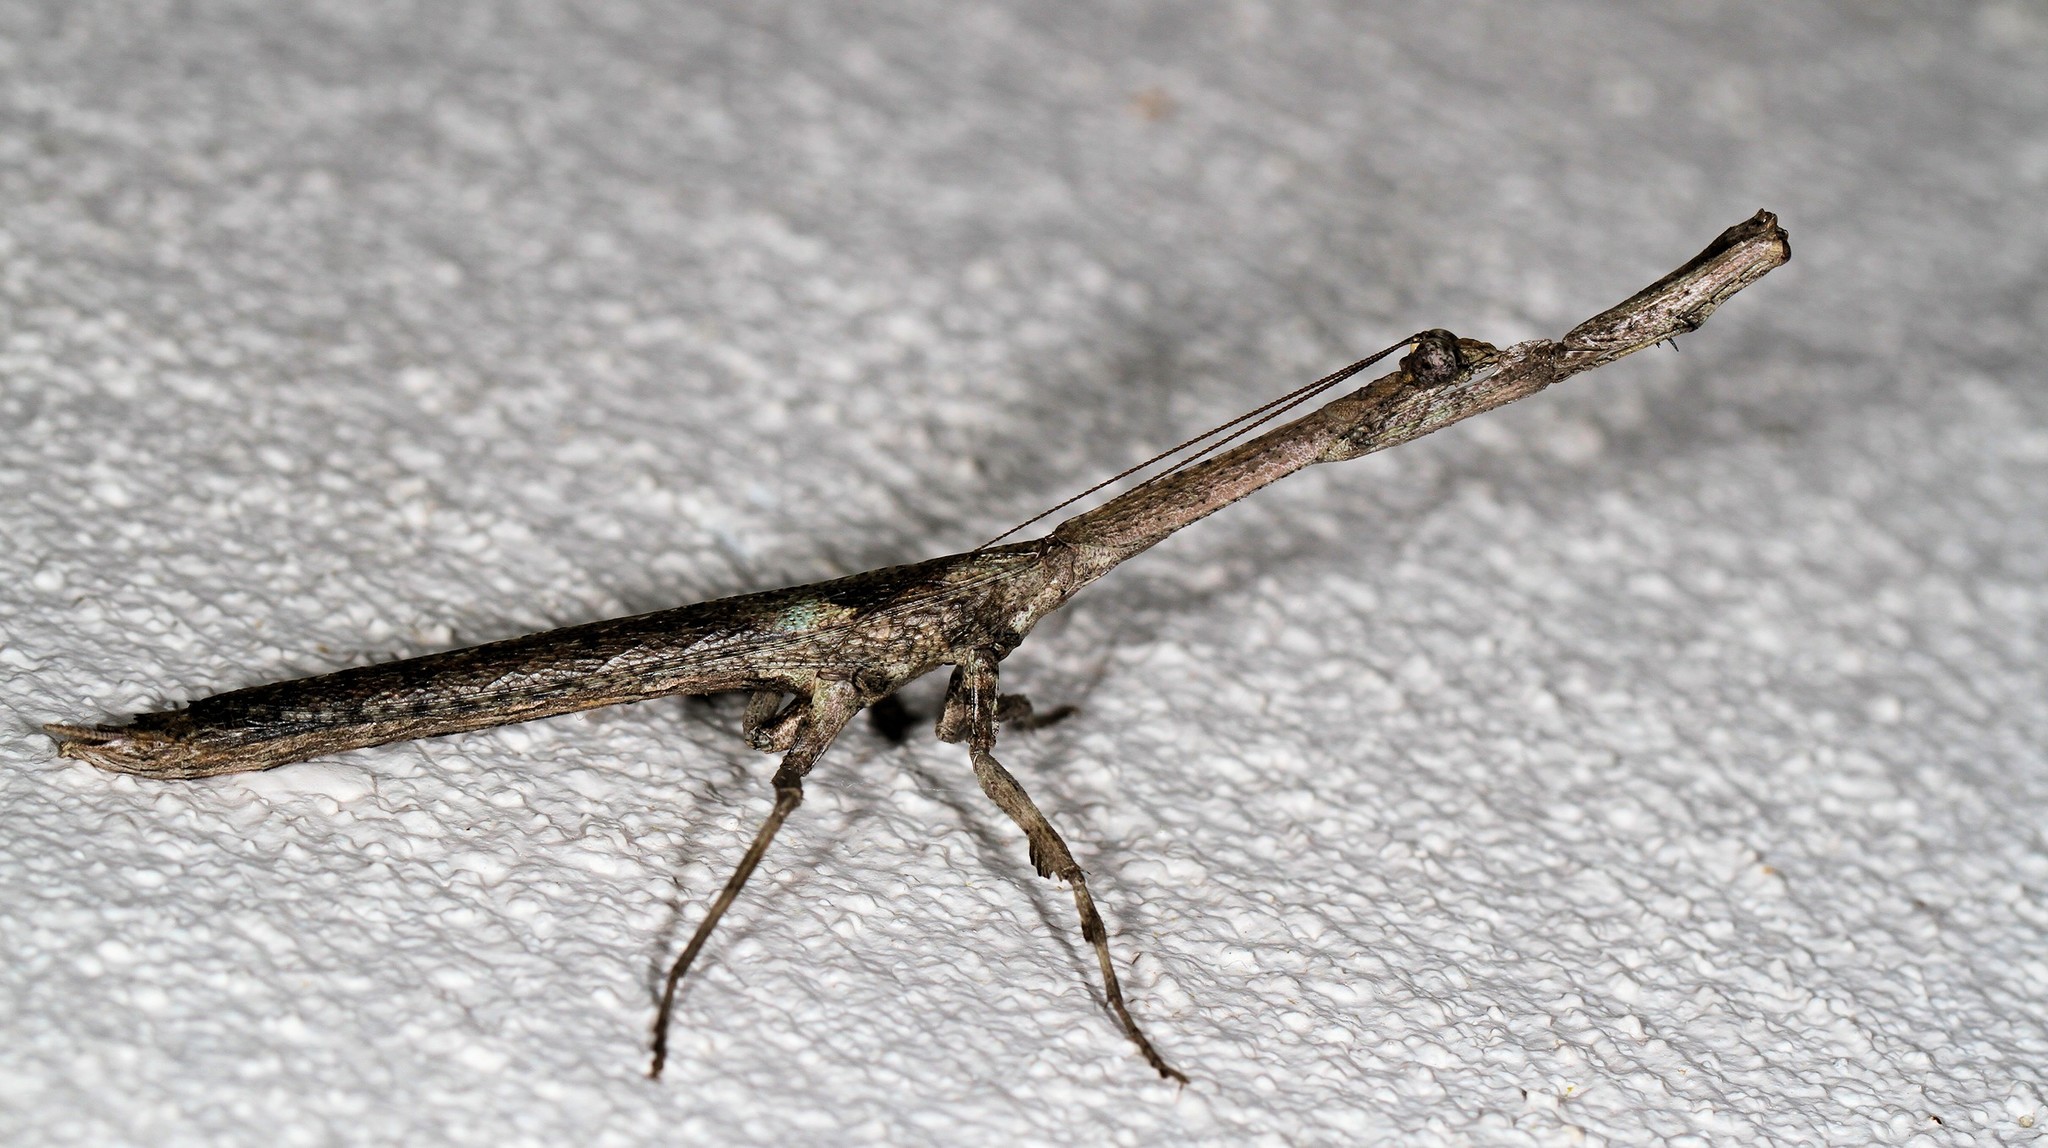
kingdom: Animalia
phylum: Arthropoda
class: Insecta
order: Mantodea
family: Deroplatyidae
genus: Popa
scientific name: Popa spurca
